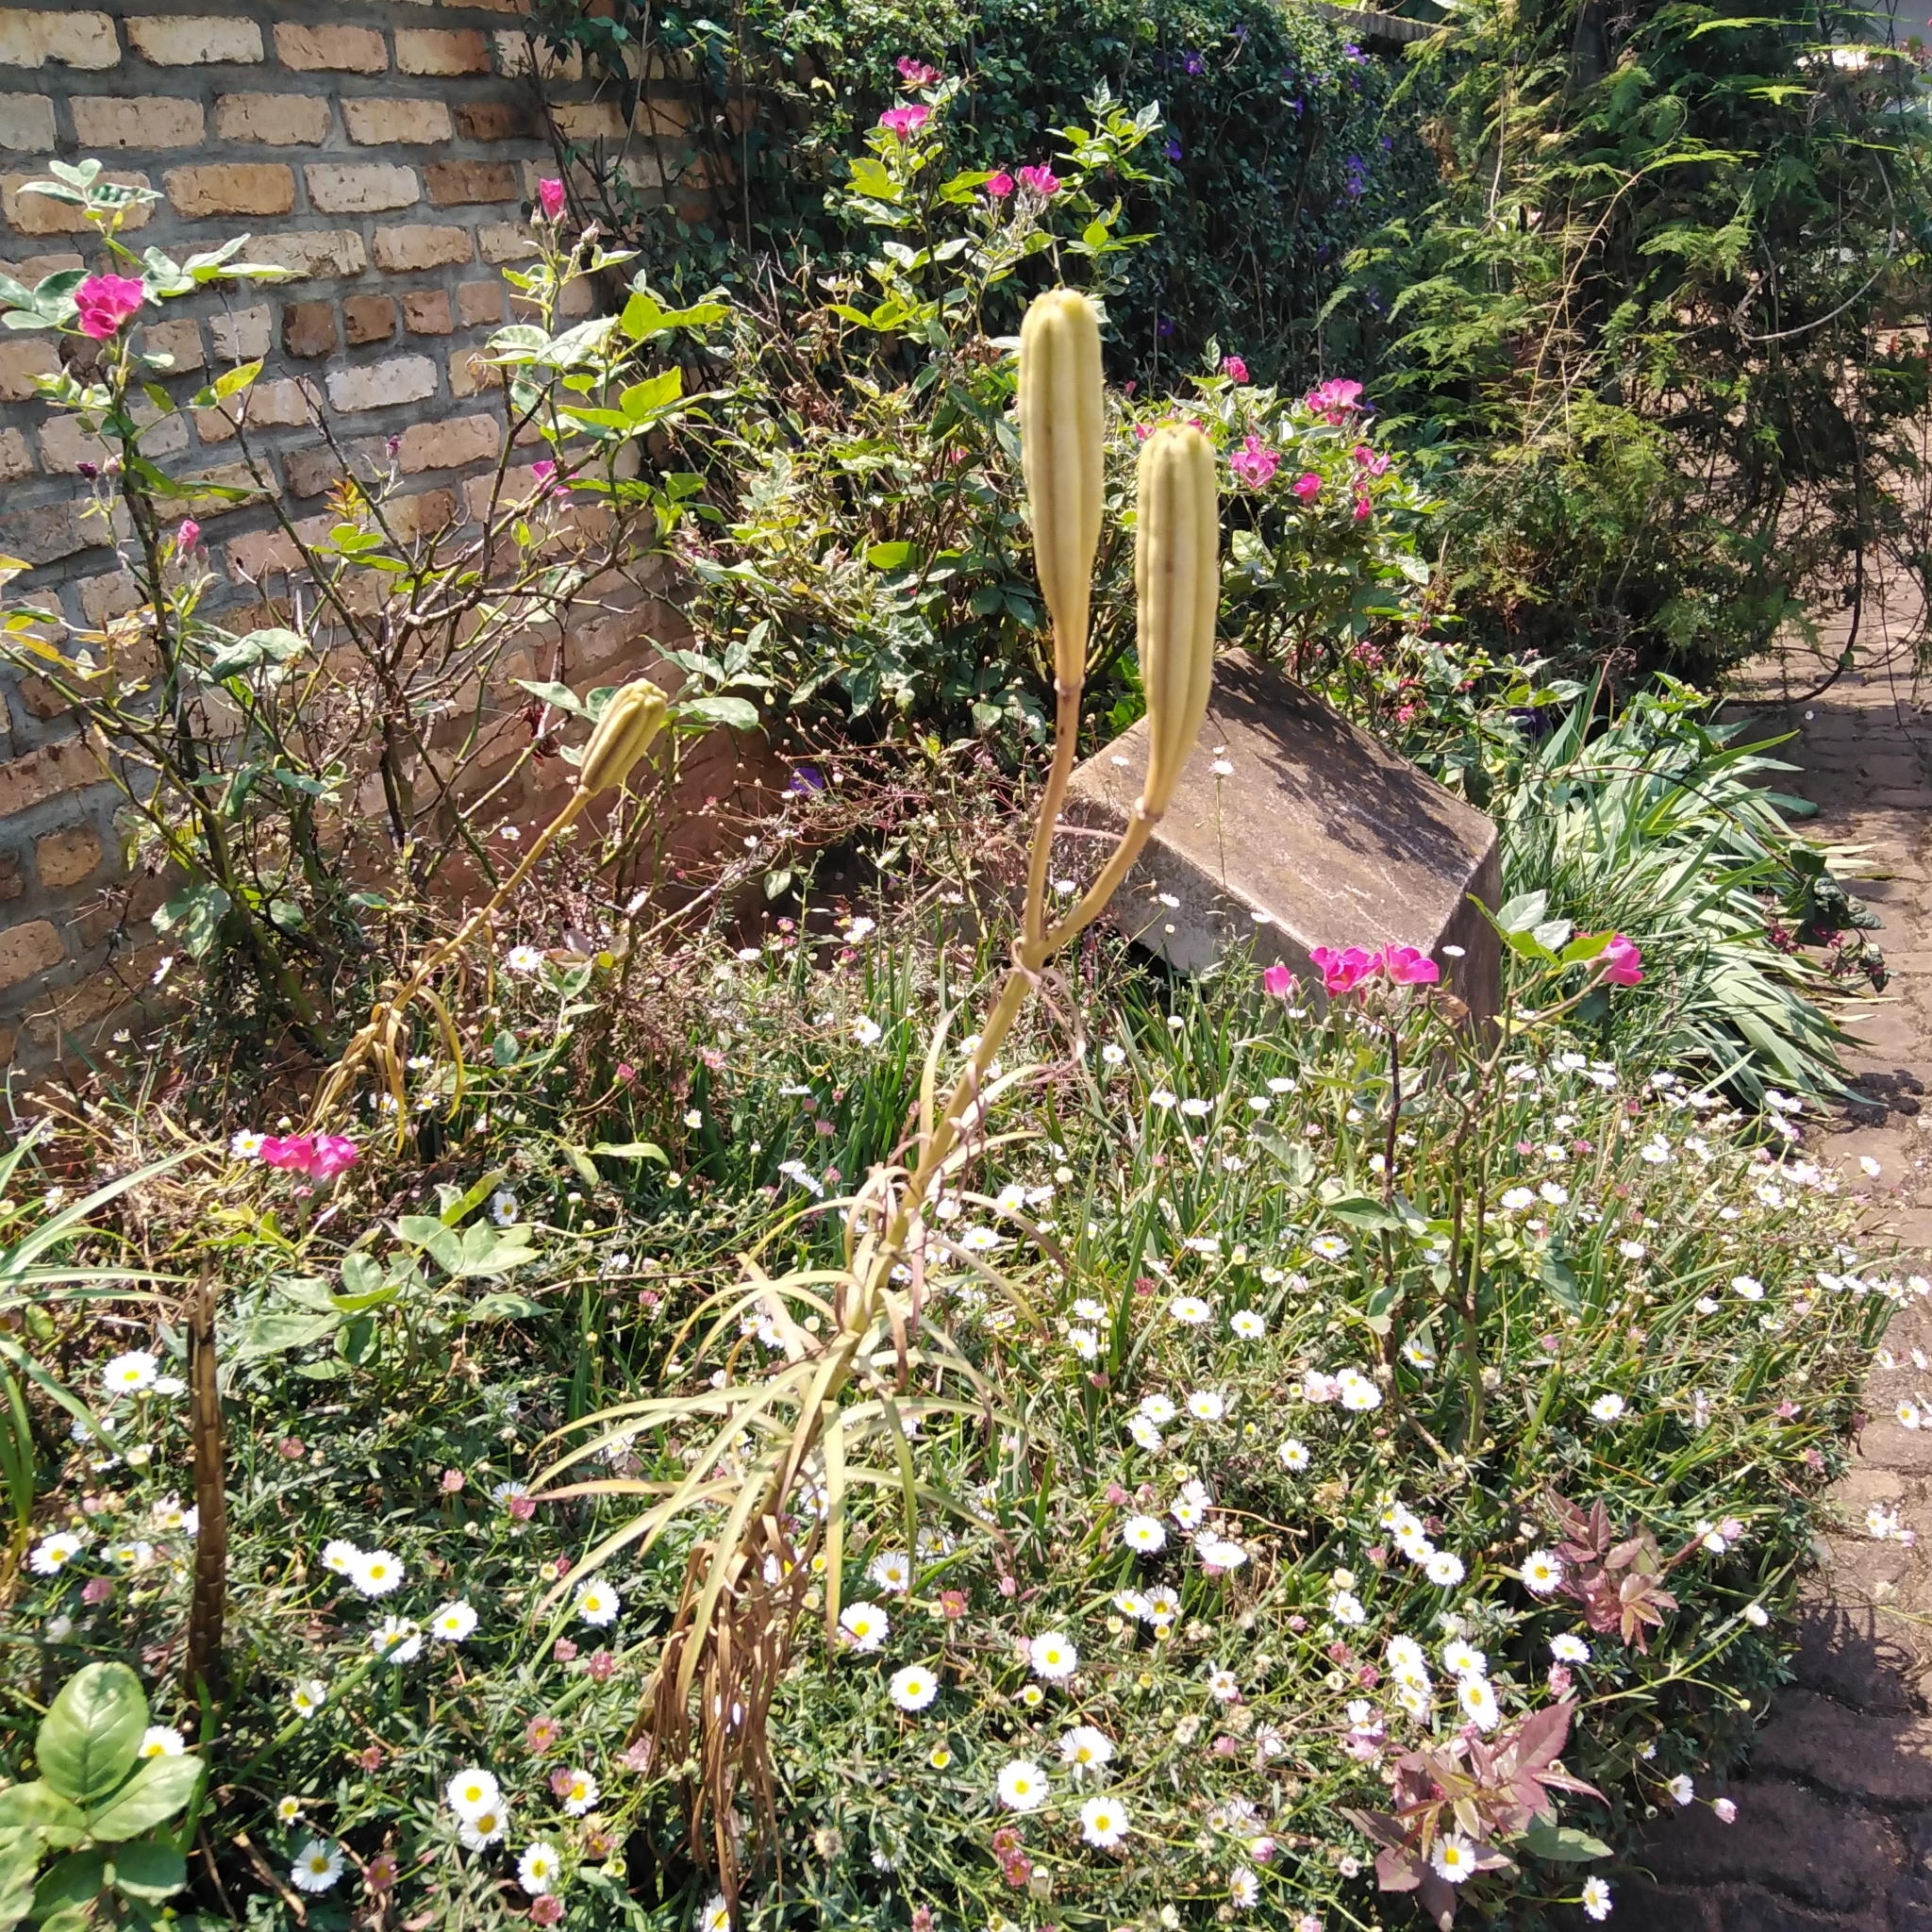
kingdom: Plantae
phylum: Tracheophyta
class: Liliopsida
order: Liliales
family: Liliaceae
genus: Lilium
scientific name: Lilium formosanum
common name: Formosa lily
